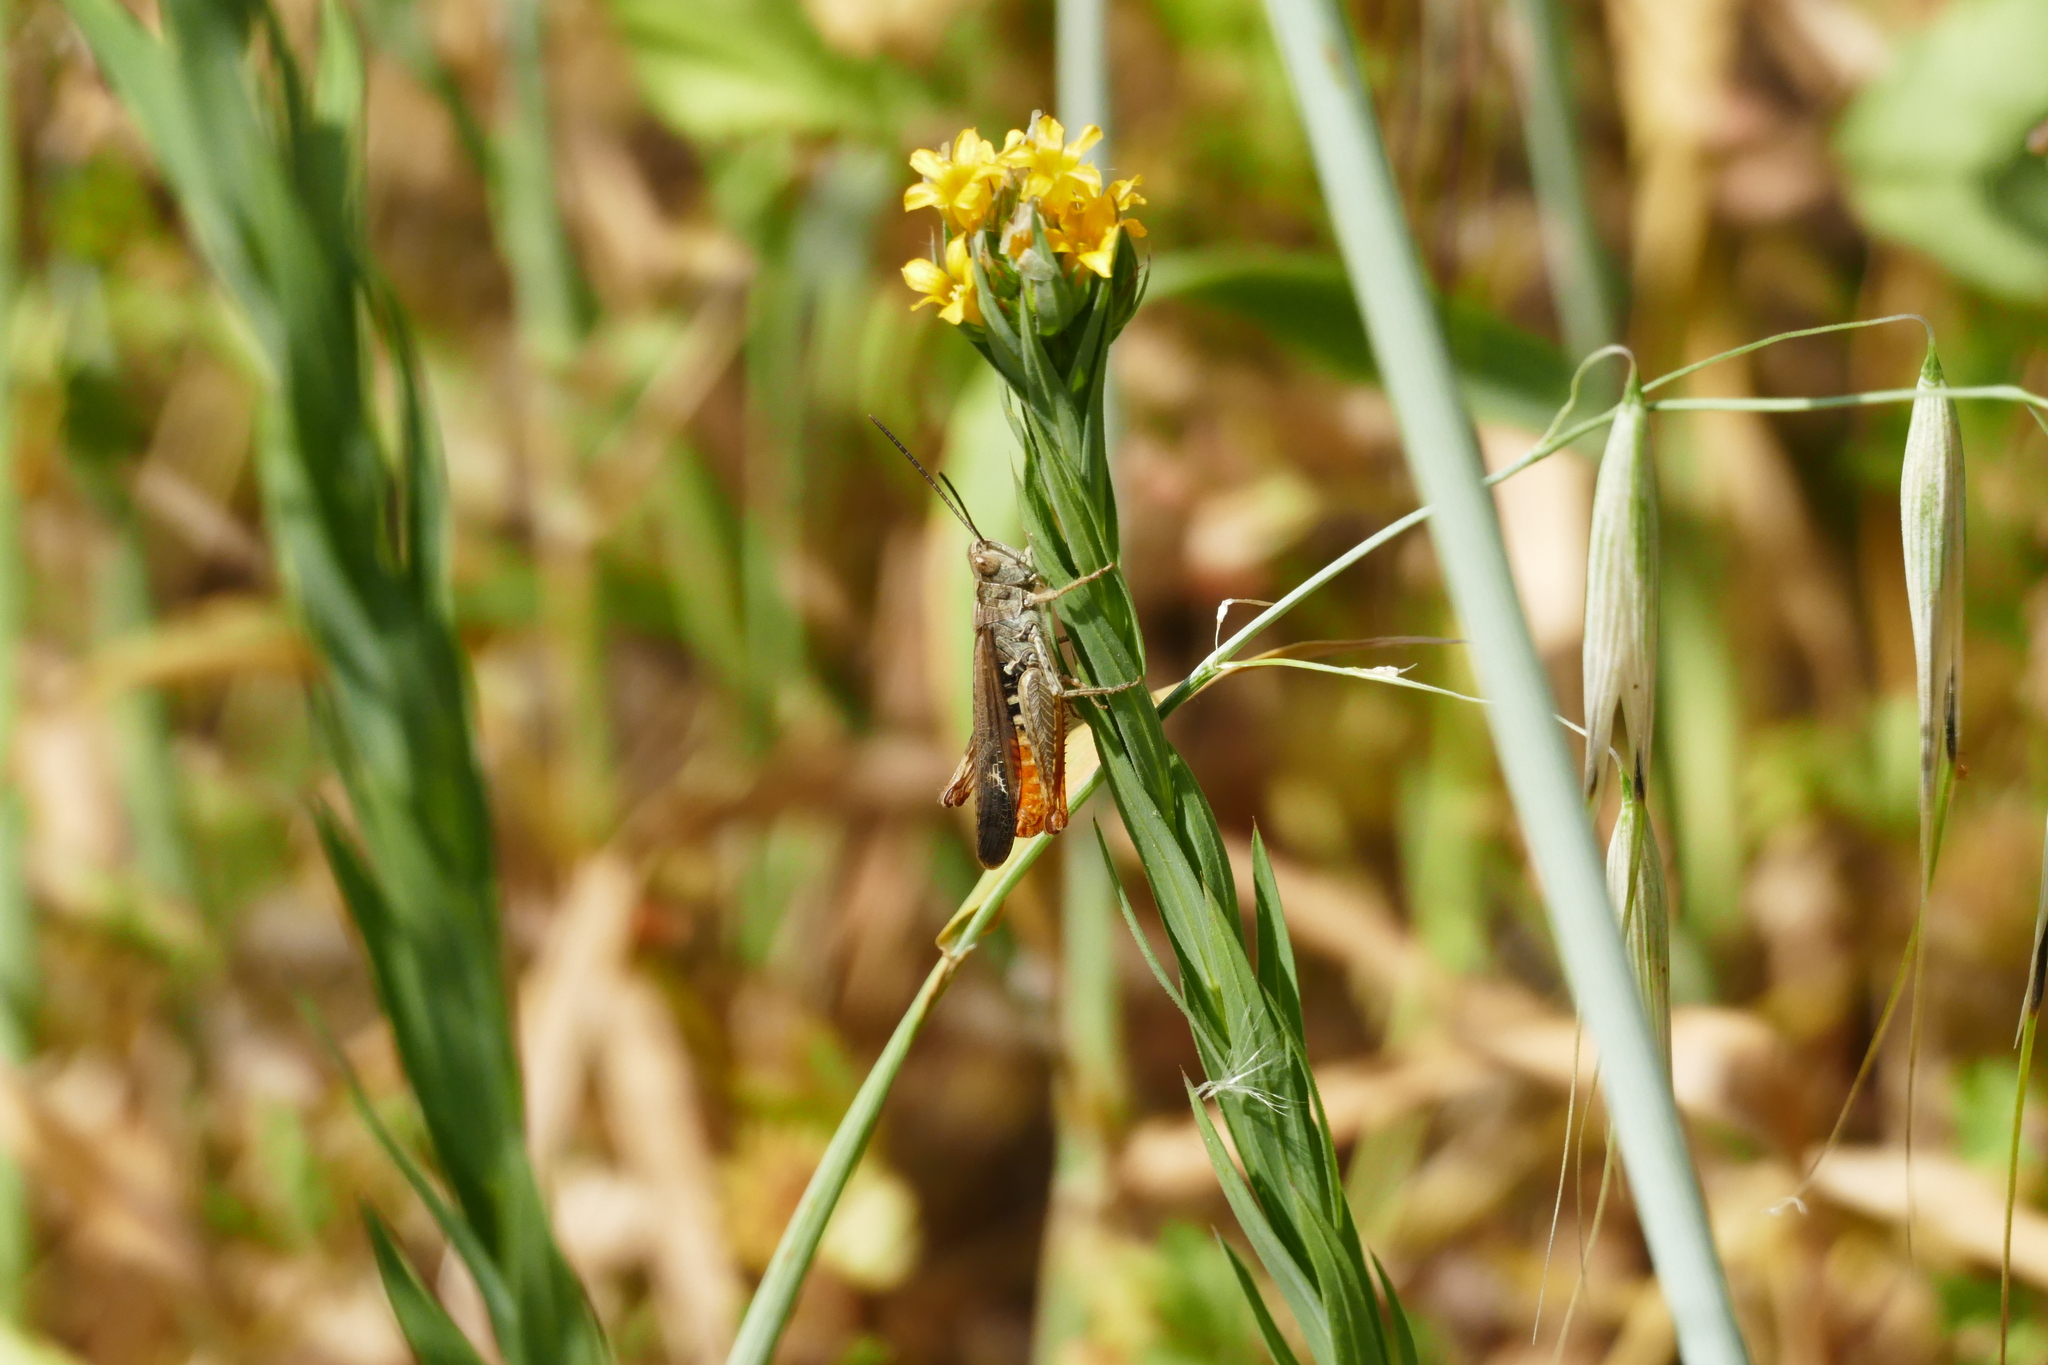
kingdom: Animalia
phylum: Arthropoda
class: Insecta
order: Orthoptera
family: Acrididae
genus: Chorthippus
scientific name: Chorthippus brunneus
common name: Field grasshopper
